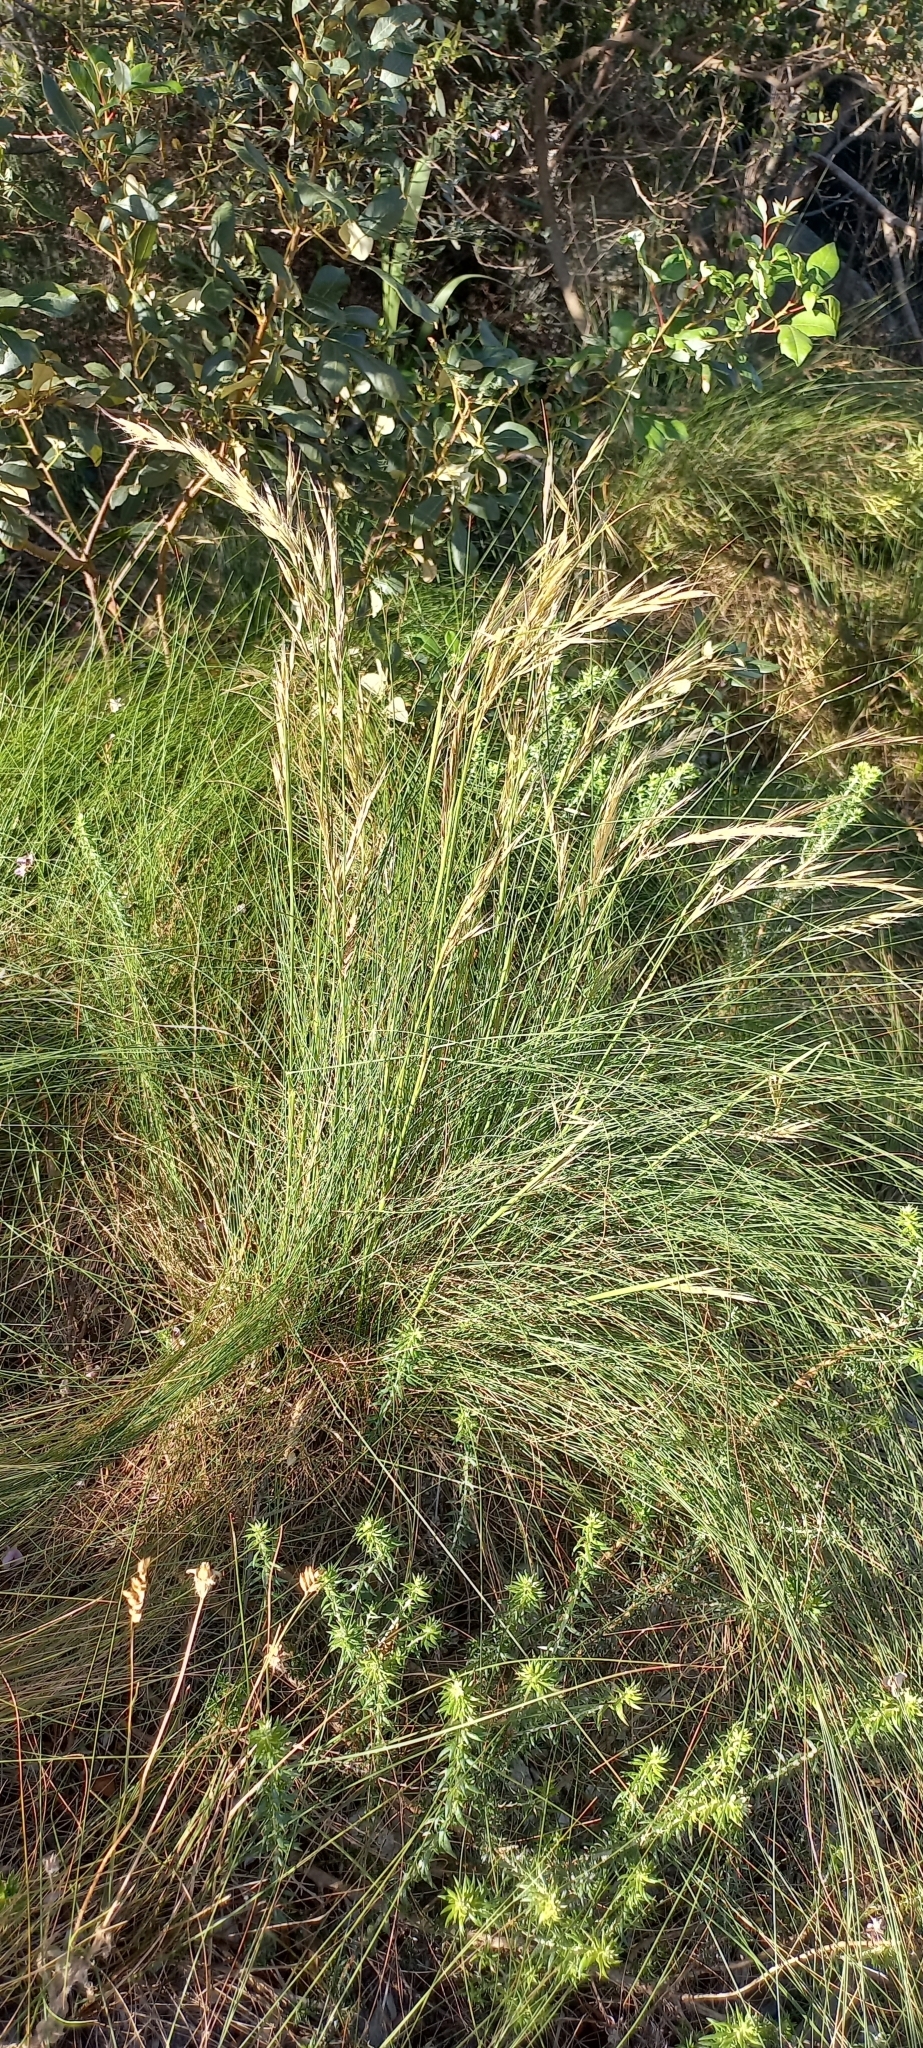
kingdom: Plantae
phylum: Tracheophyta
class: Liliopsida
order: Poales
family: Poaceae
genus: Tenaxia
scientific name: Tenaxia stricta
